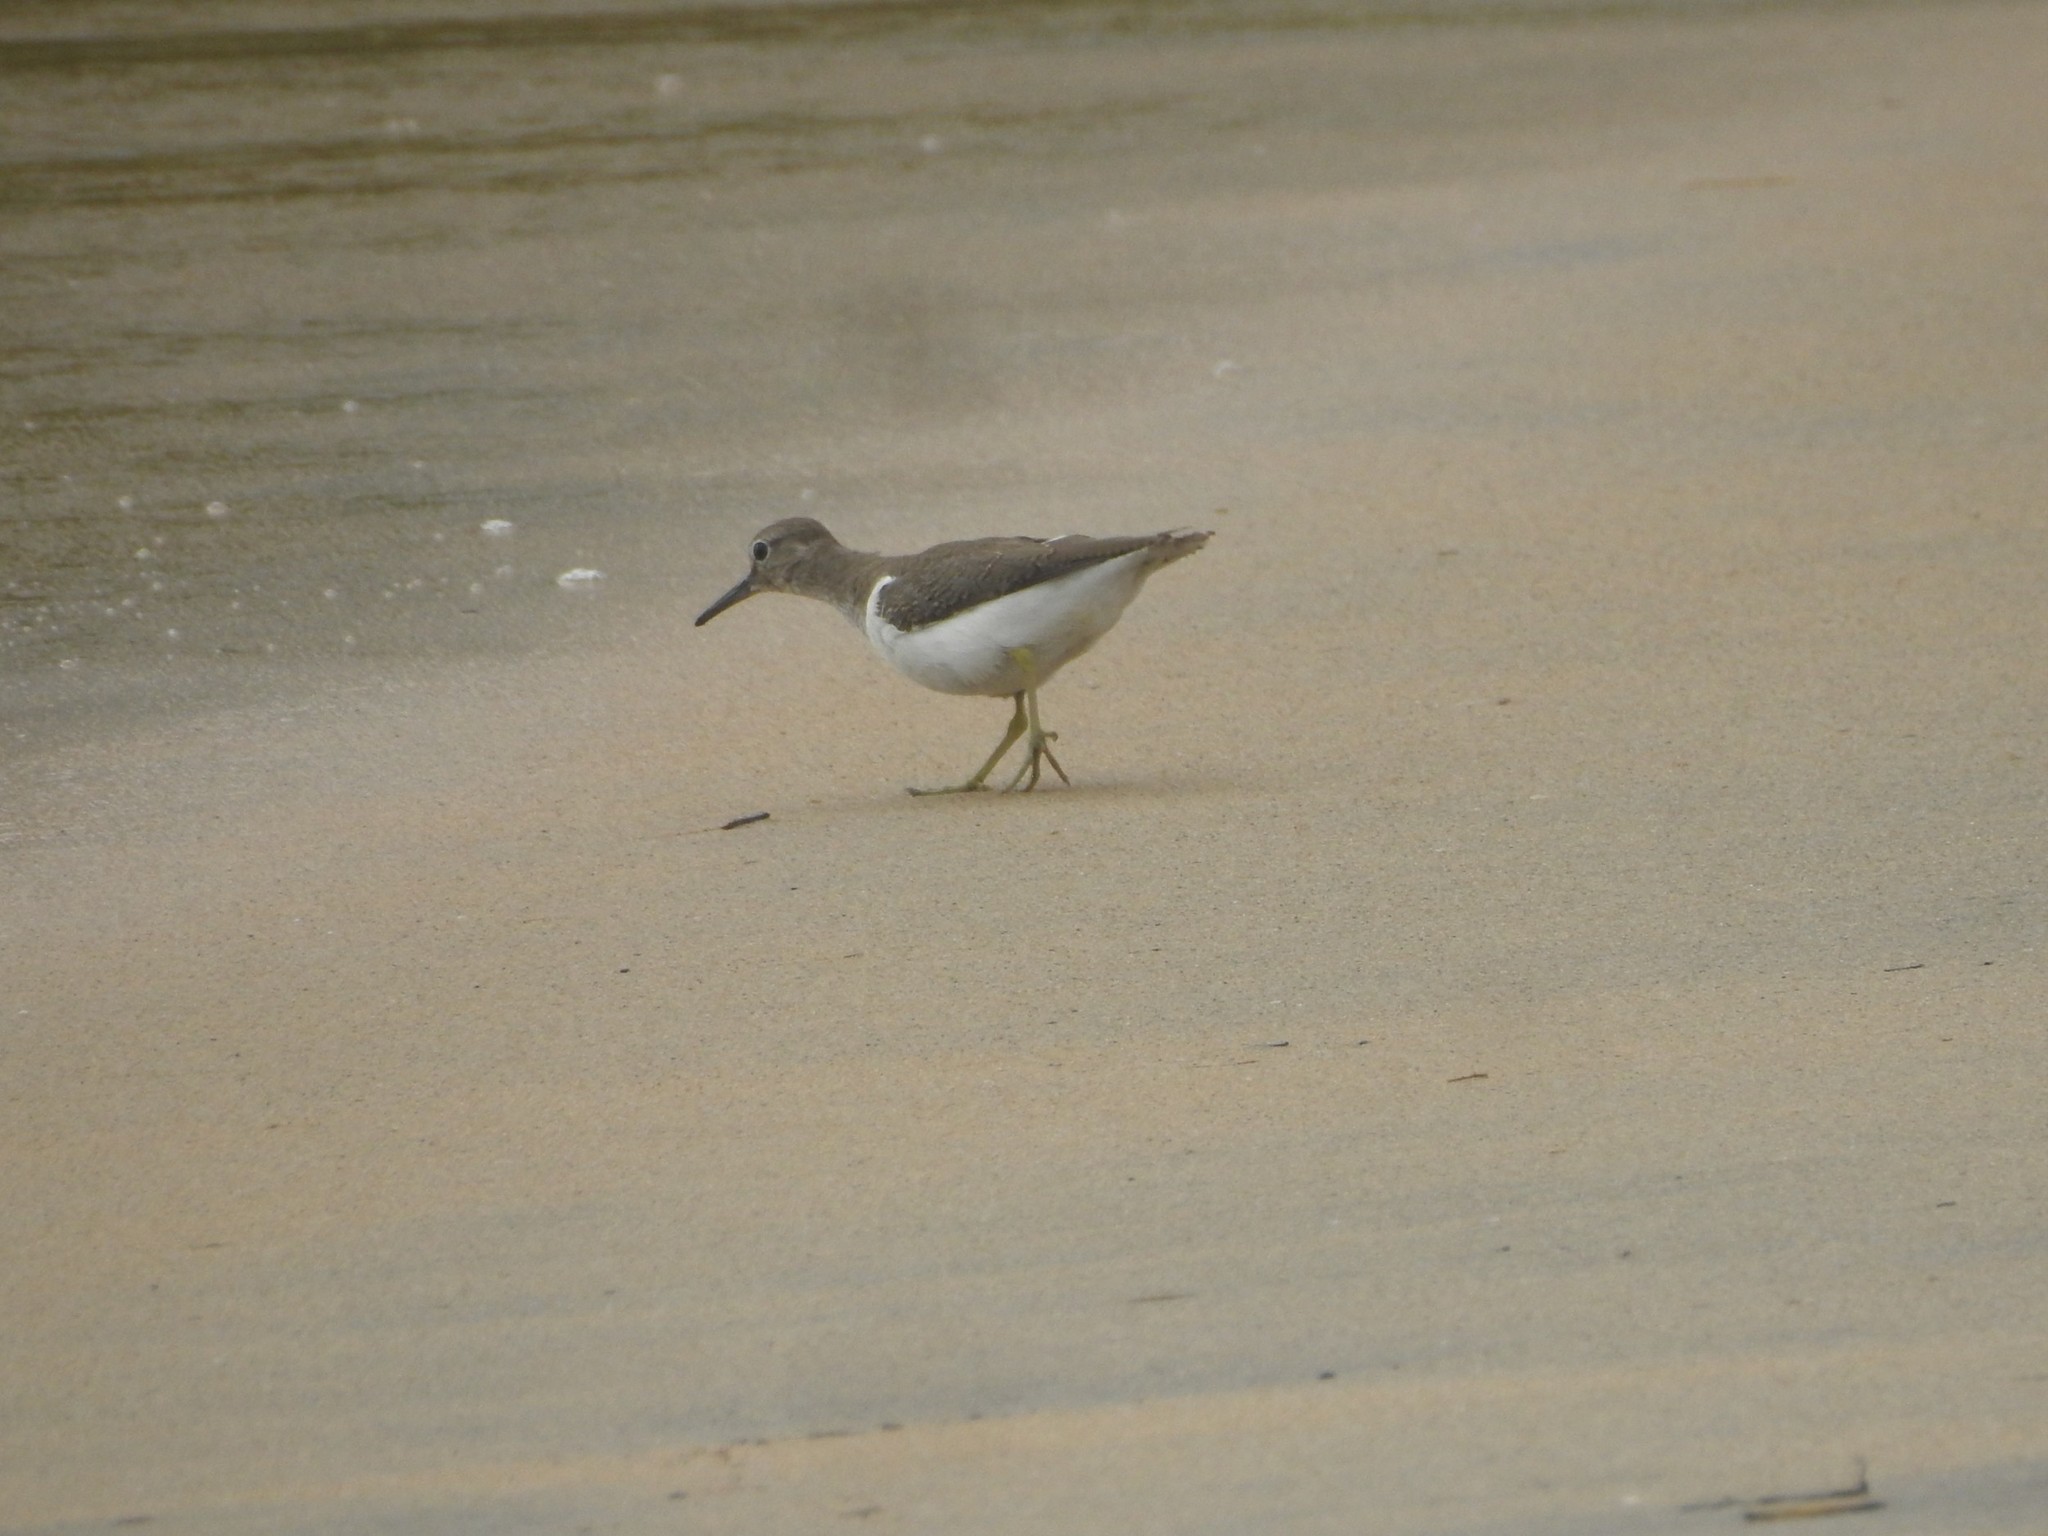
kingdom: Animalia
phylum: Chordata
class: Aves
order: Charadriiformes
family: Scolopacidae
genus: Actitis
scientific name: Actitis hypoleucos
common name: Common sandpiper
